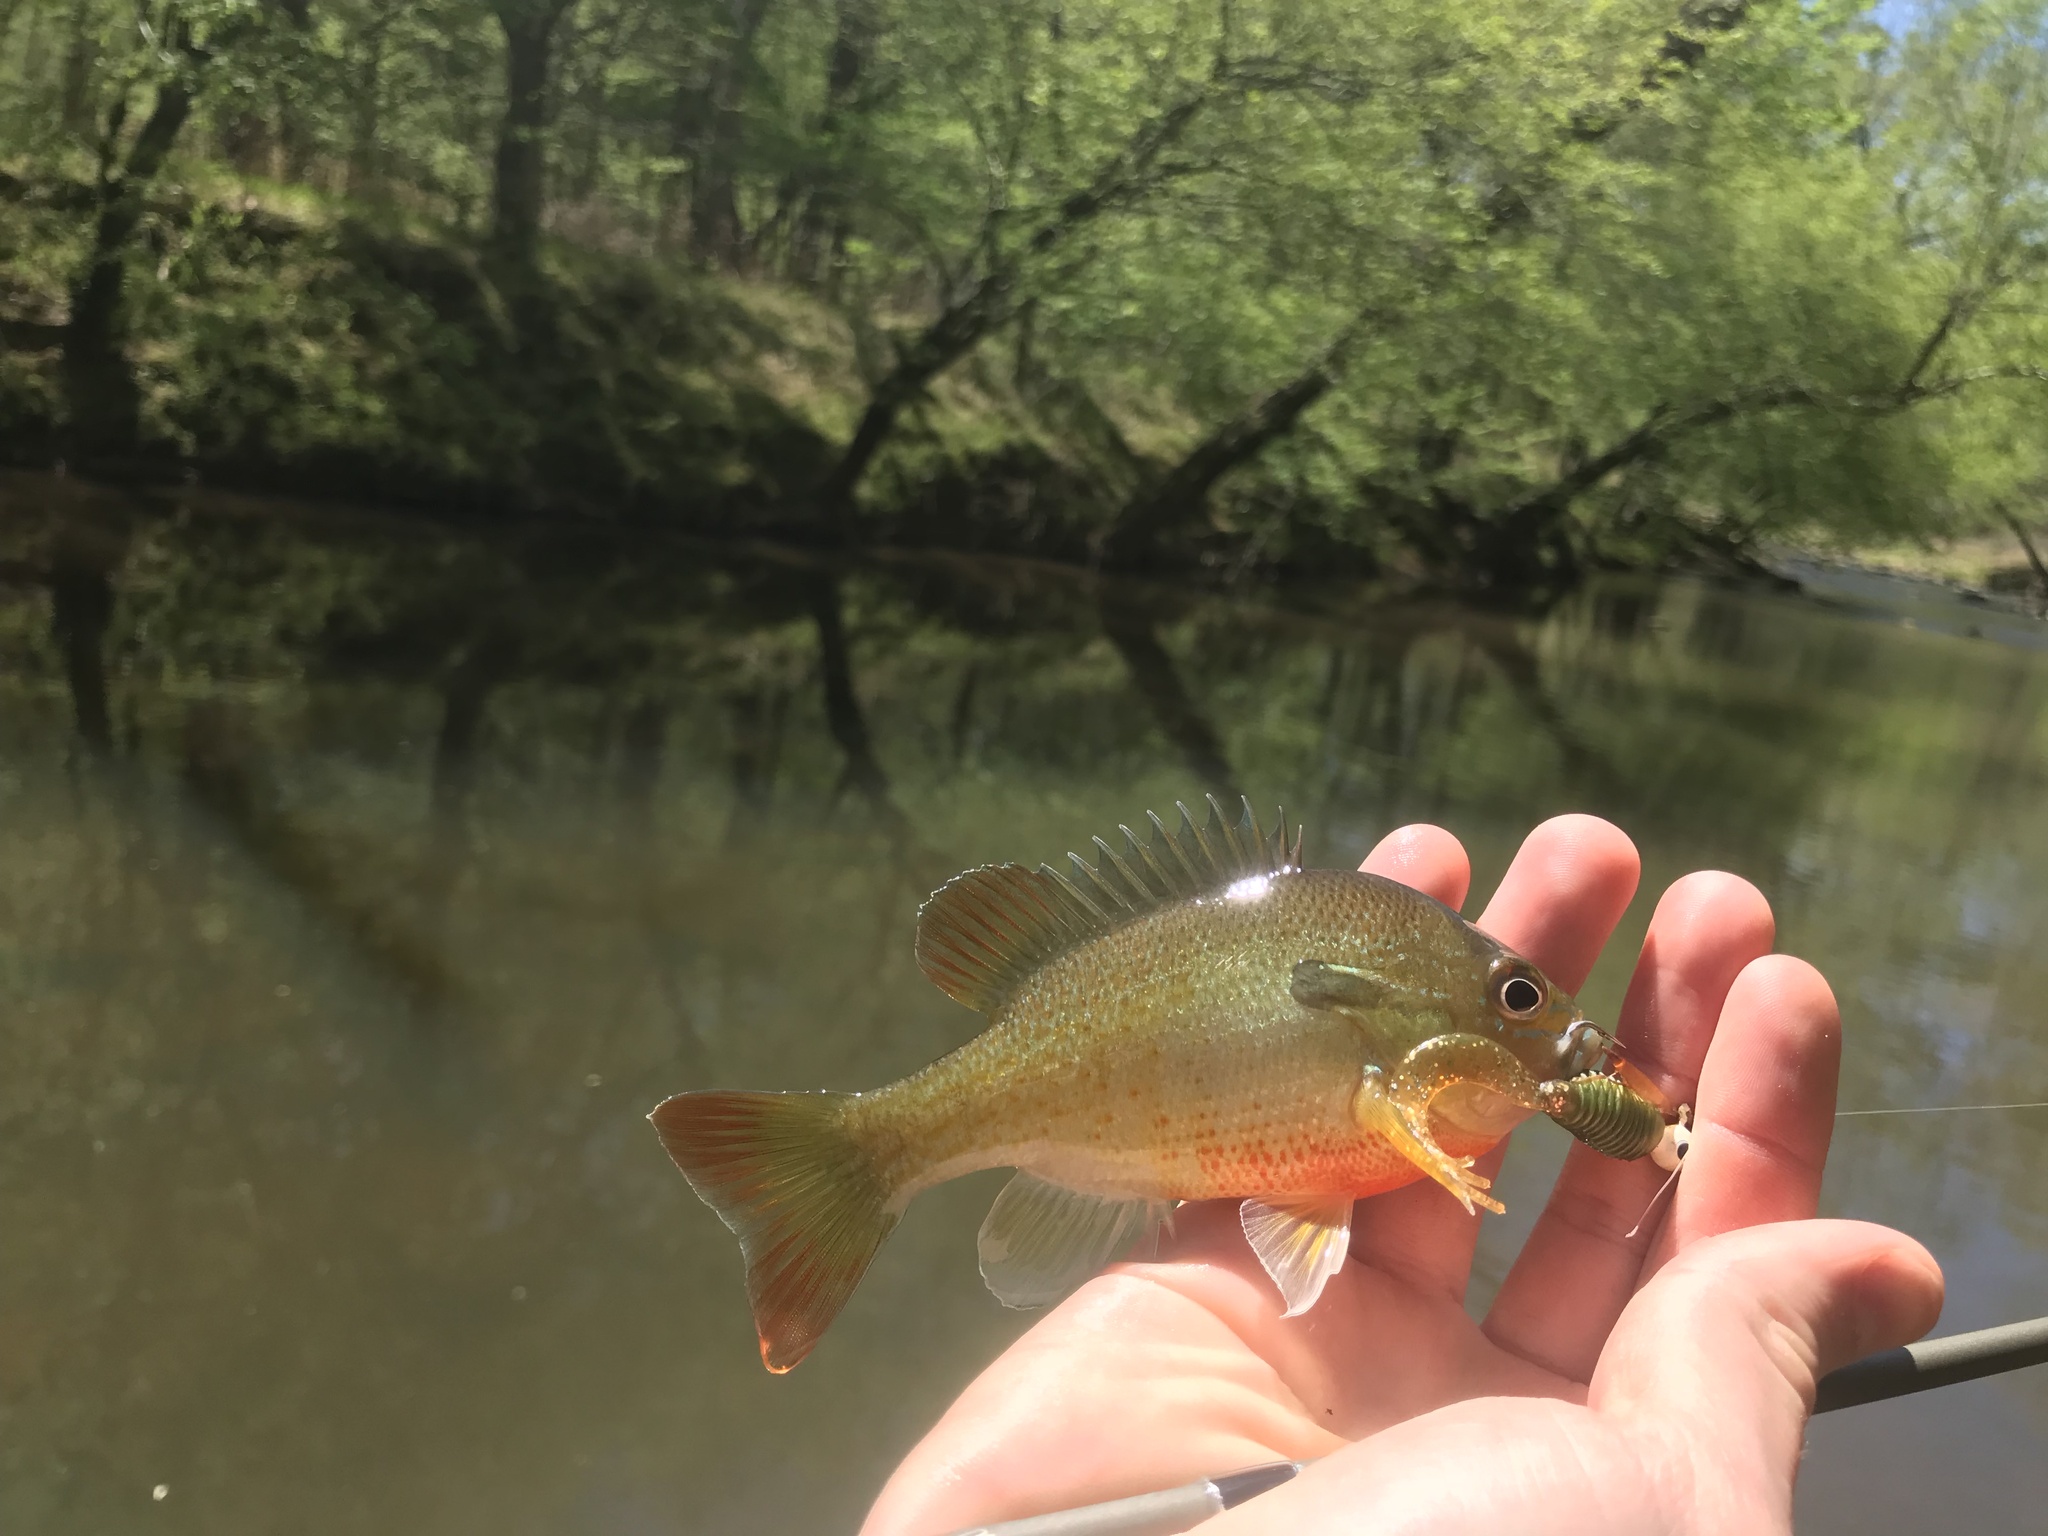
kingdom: Animalia
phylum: Chordata
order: Perciformes
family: Centrarchidae
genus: Lepomis
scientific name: Lepomis auritus
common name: Redbreast sunfish
